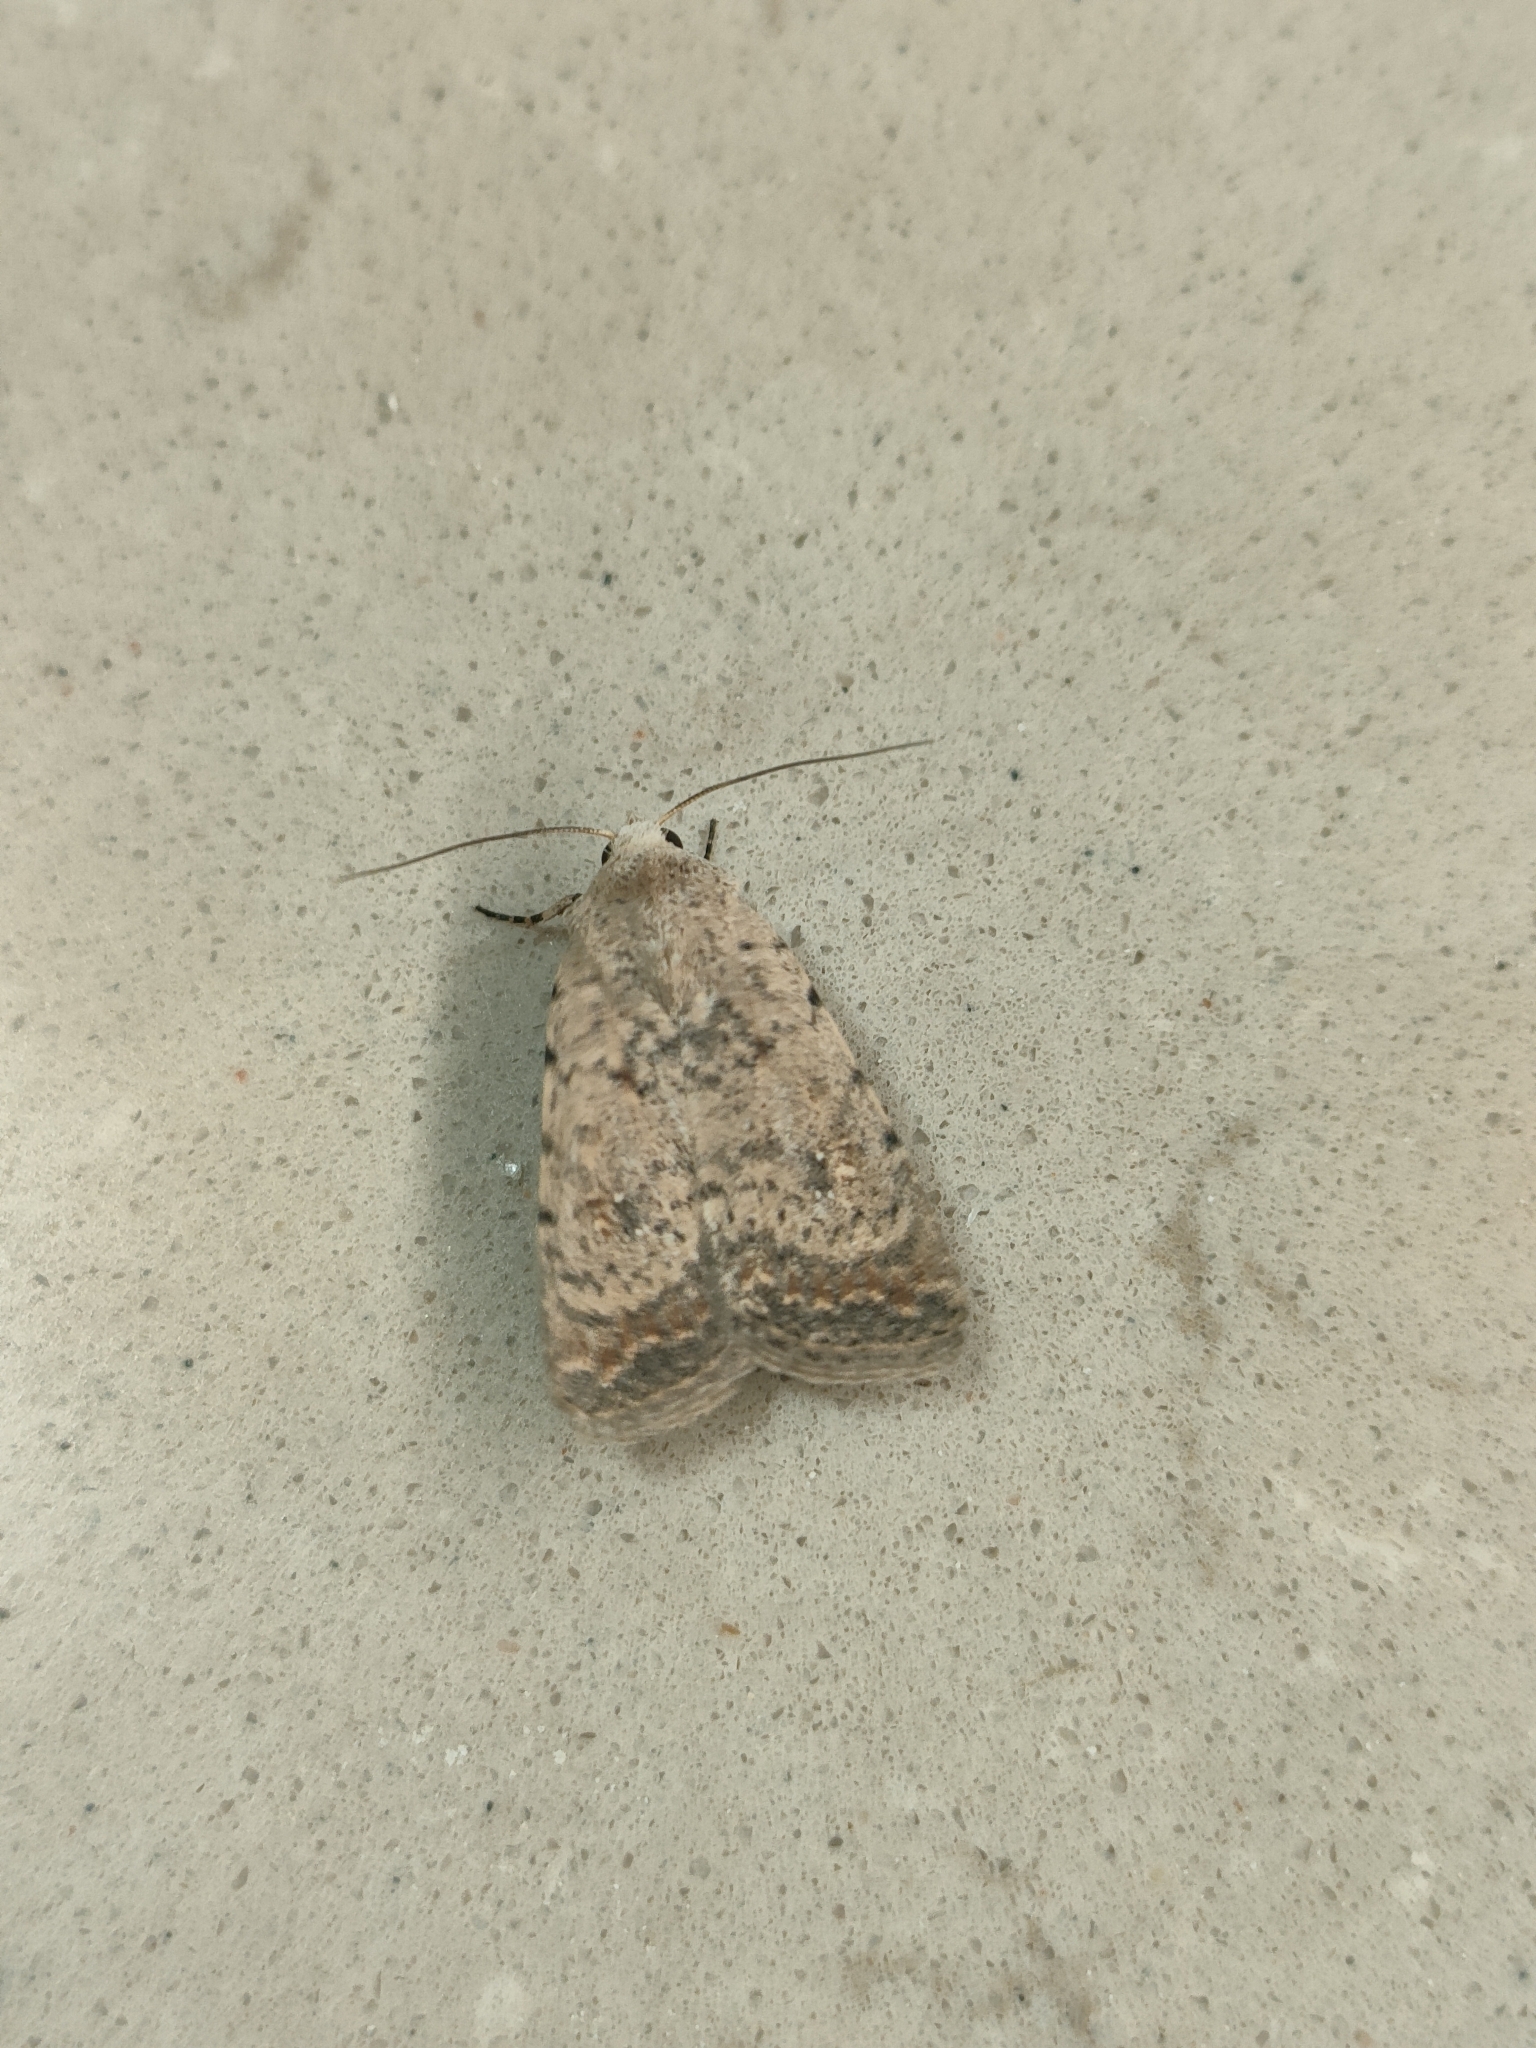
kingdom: Animalia
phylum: Arthropoda
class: Insecta
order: Lepidoptera
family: Noctuidae
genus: Caradrina
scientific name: Caradrina clavipalpis
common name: Pale mottled willow
